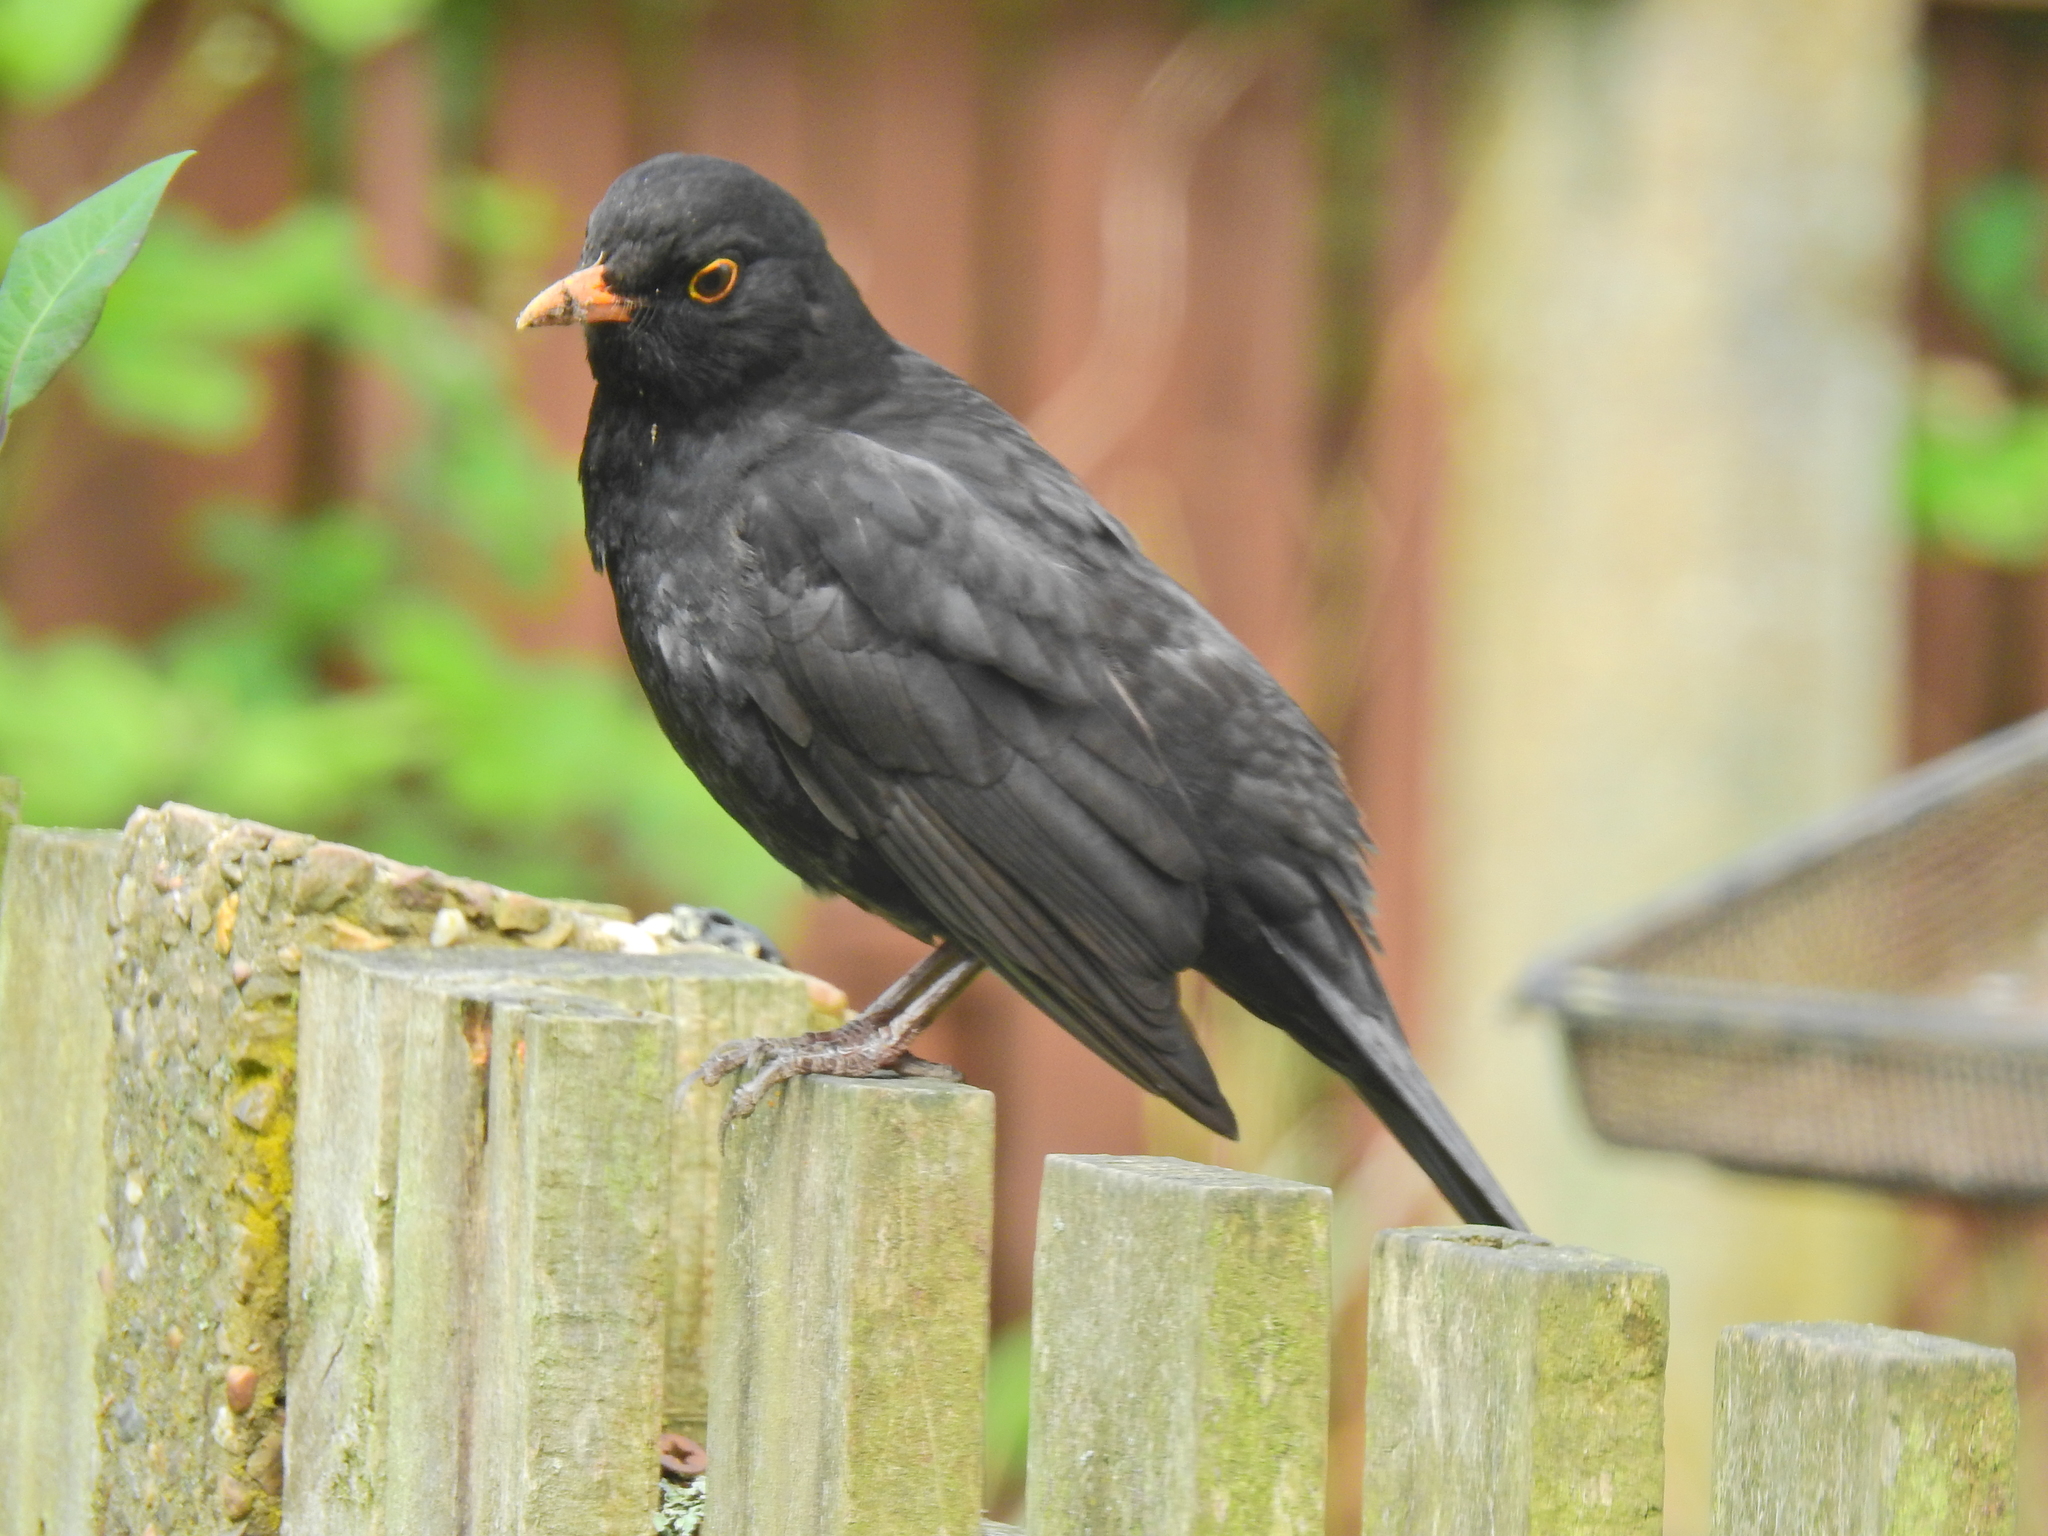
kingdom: Animalia
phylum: Chordata
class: Aves
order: Passeriformes
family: Turdidae
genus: Turdus
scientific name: Turdus merula
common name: Common blackbird
